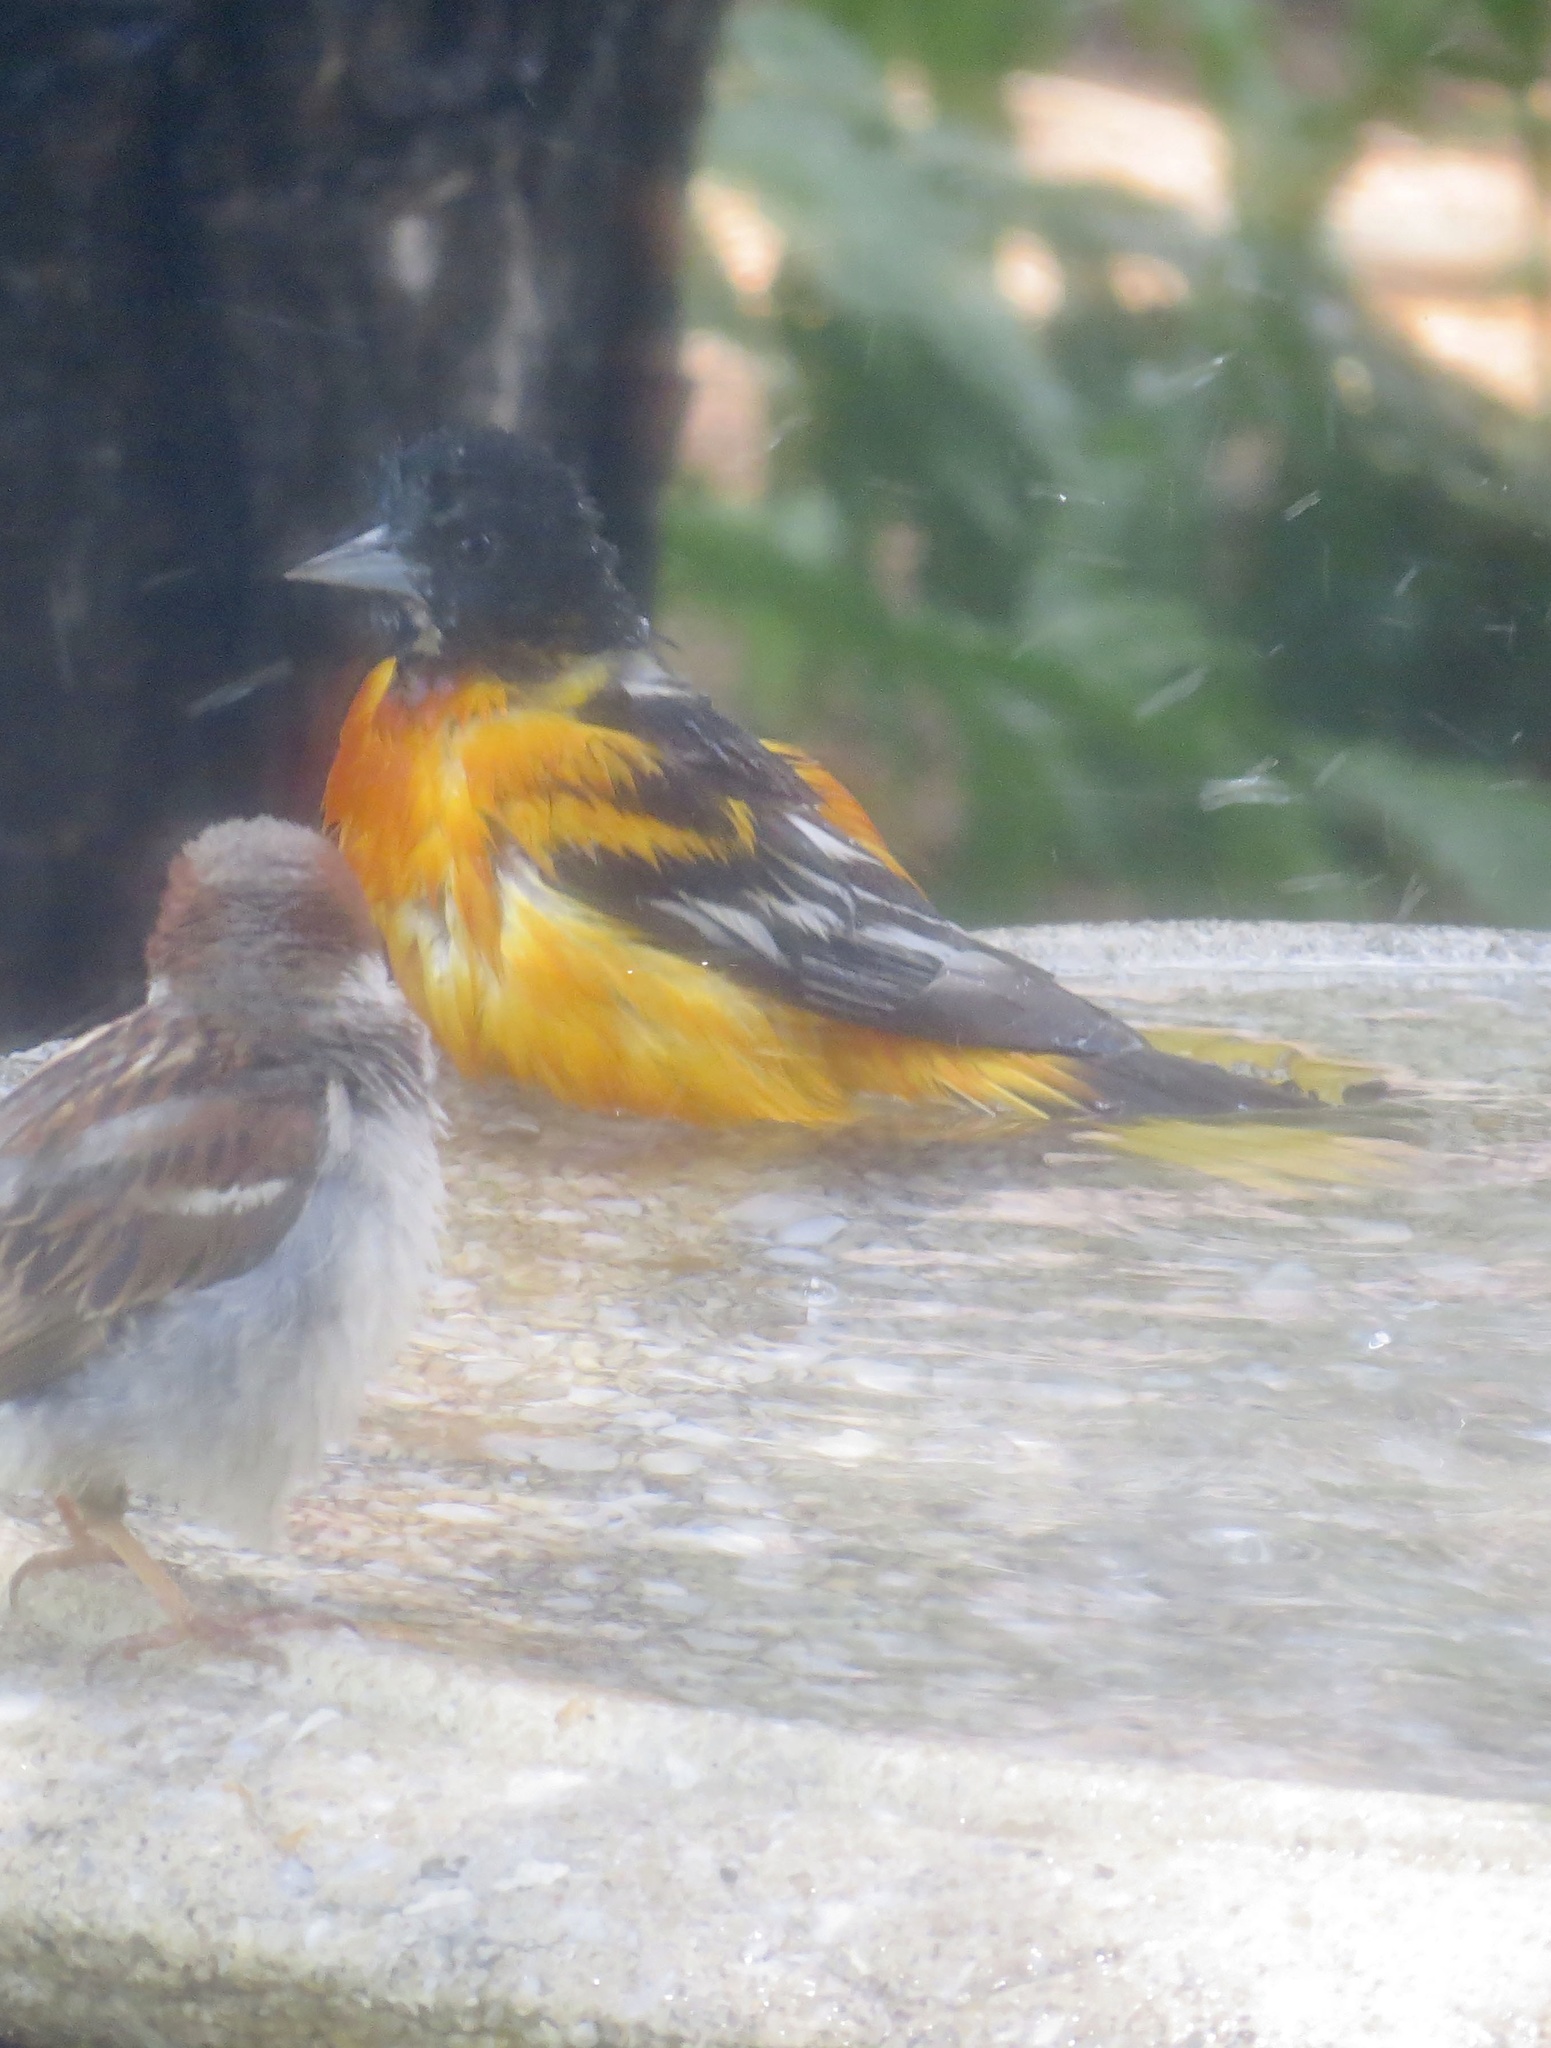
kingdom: Animalia
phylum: Chordata
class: Aves
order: Passeriformes
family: Icteridae
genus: Icterus
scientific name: Icterus galbula
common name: Baltimore oriole
